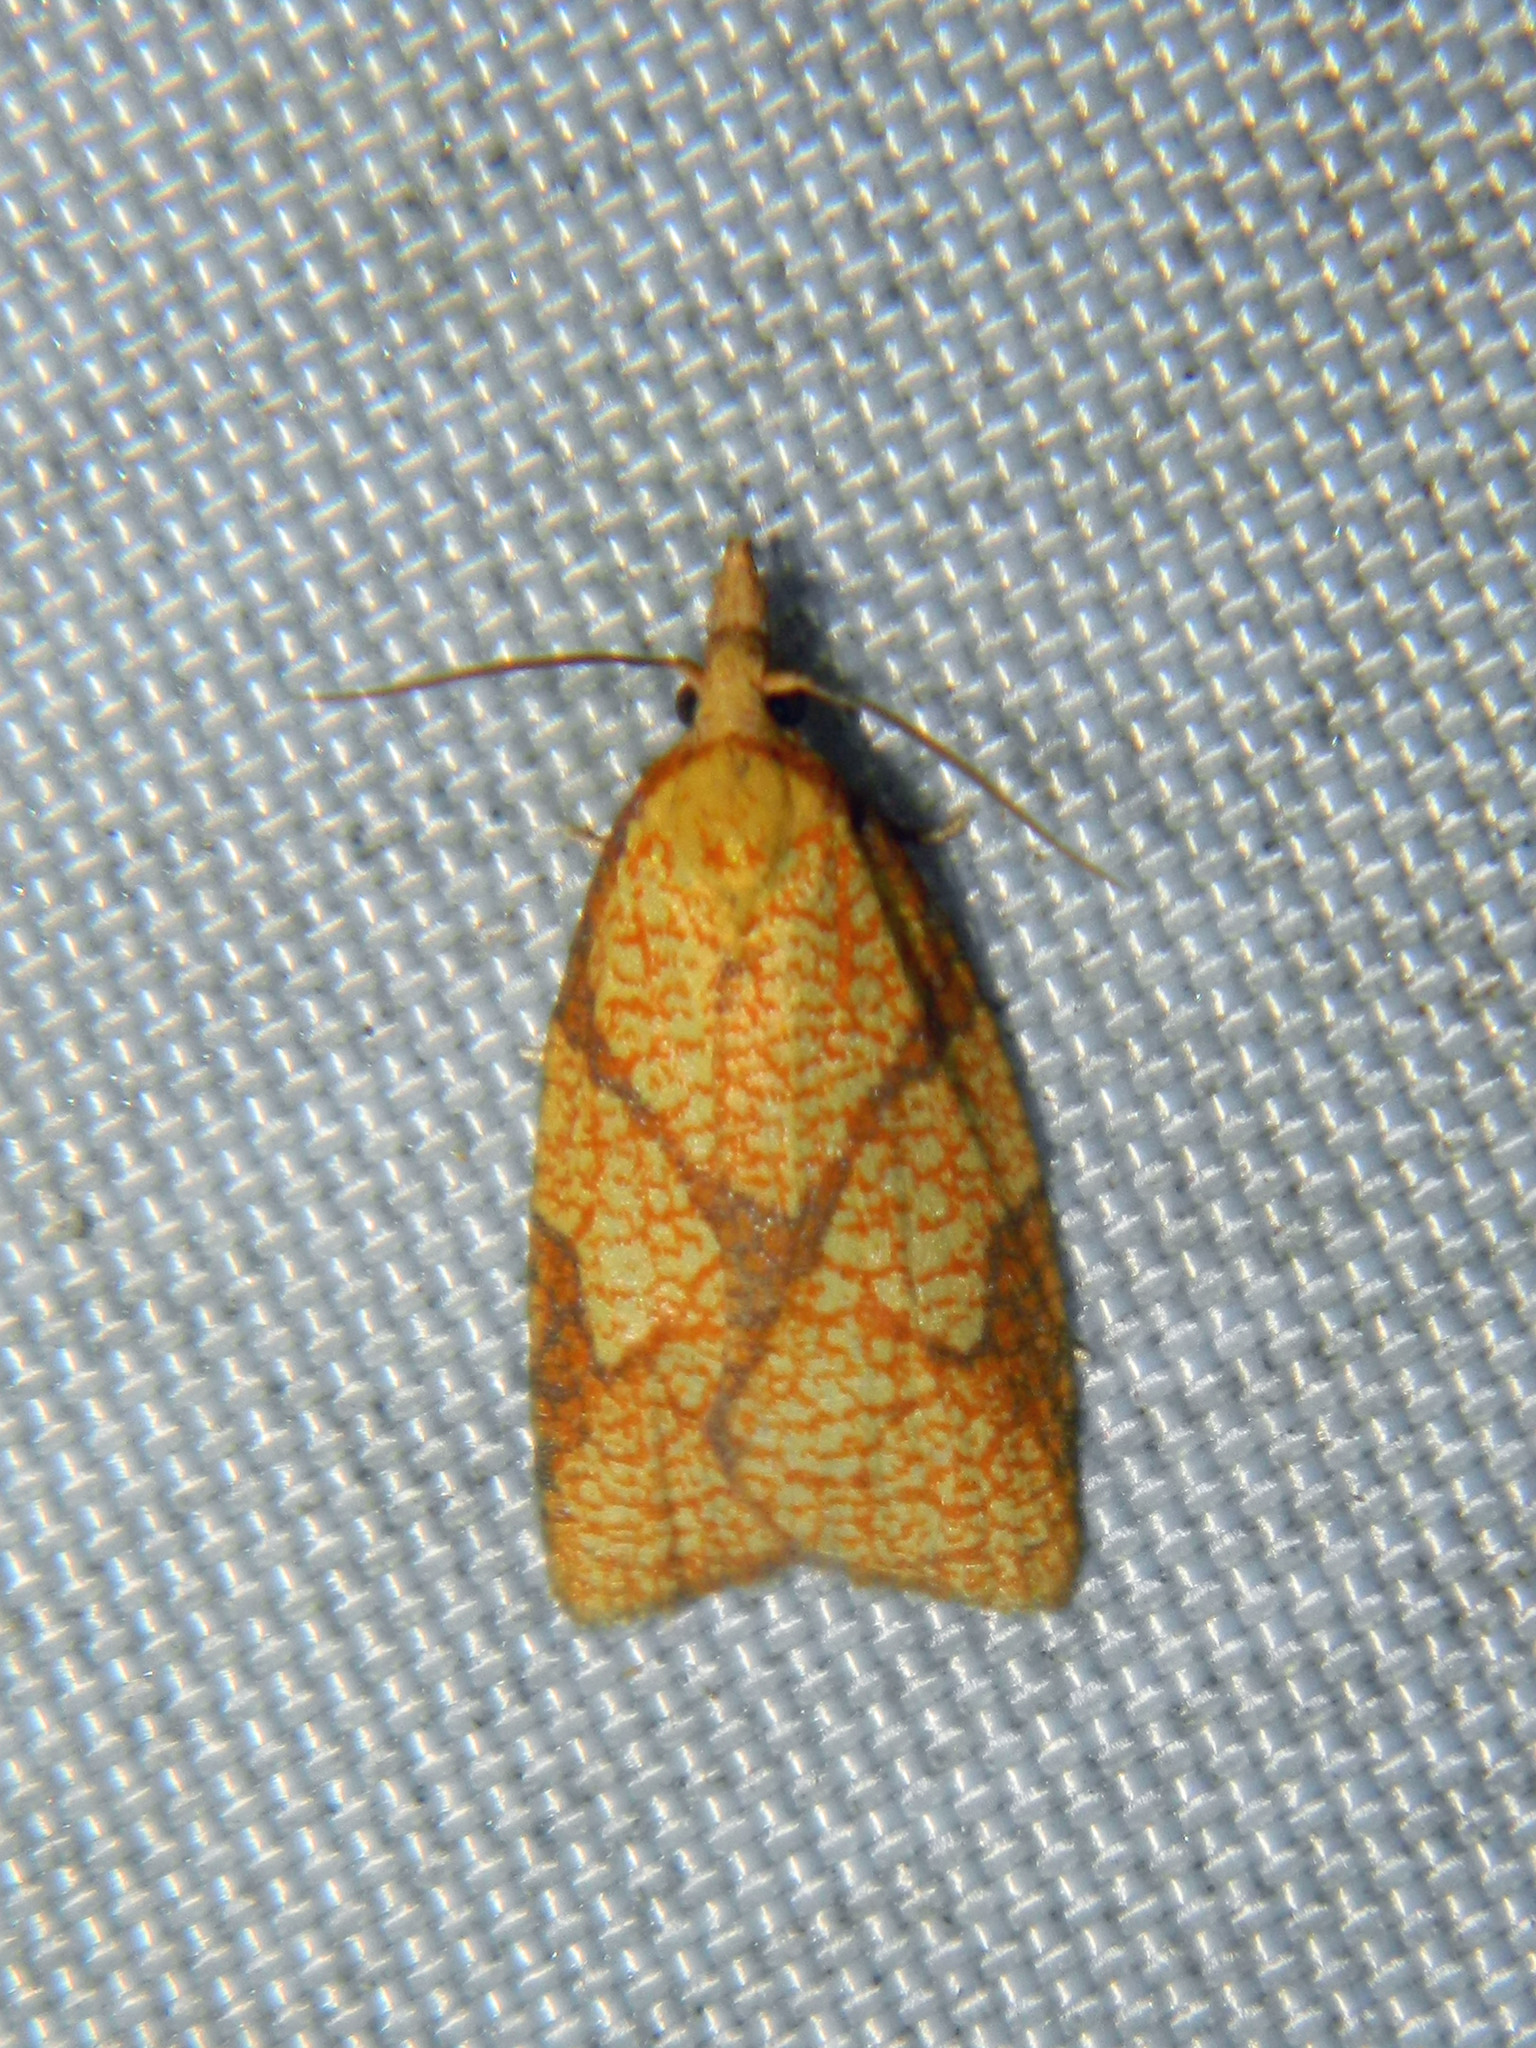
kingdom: Animalia
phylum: Arthropoda
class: Insecta
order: Lepidoptera
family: Tortricidae
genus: Cenopis
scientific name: Cenopis reticulatana
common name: Reticulated fruitworm moth
